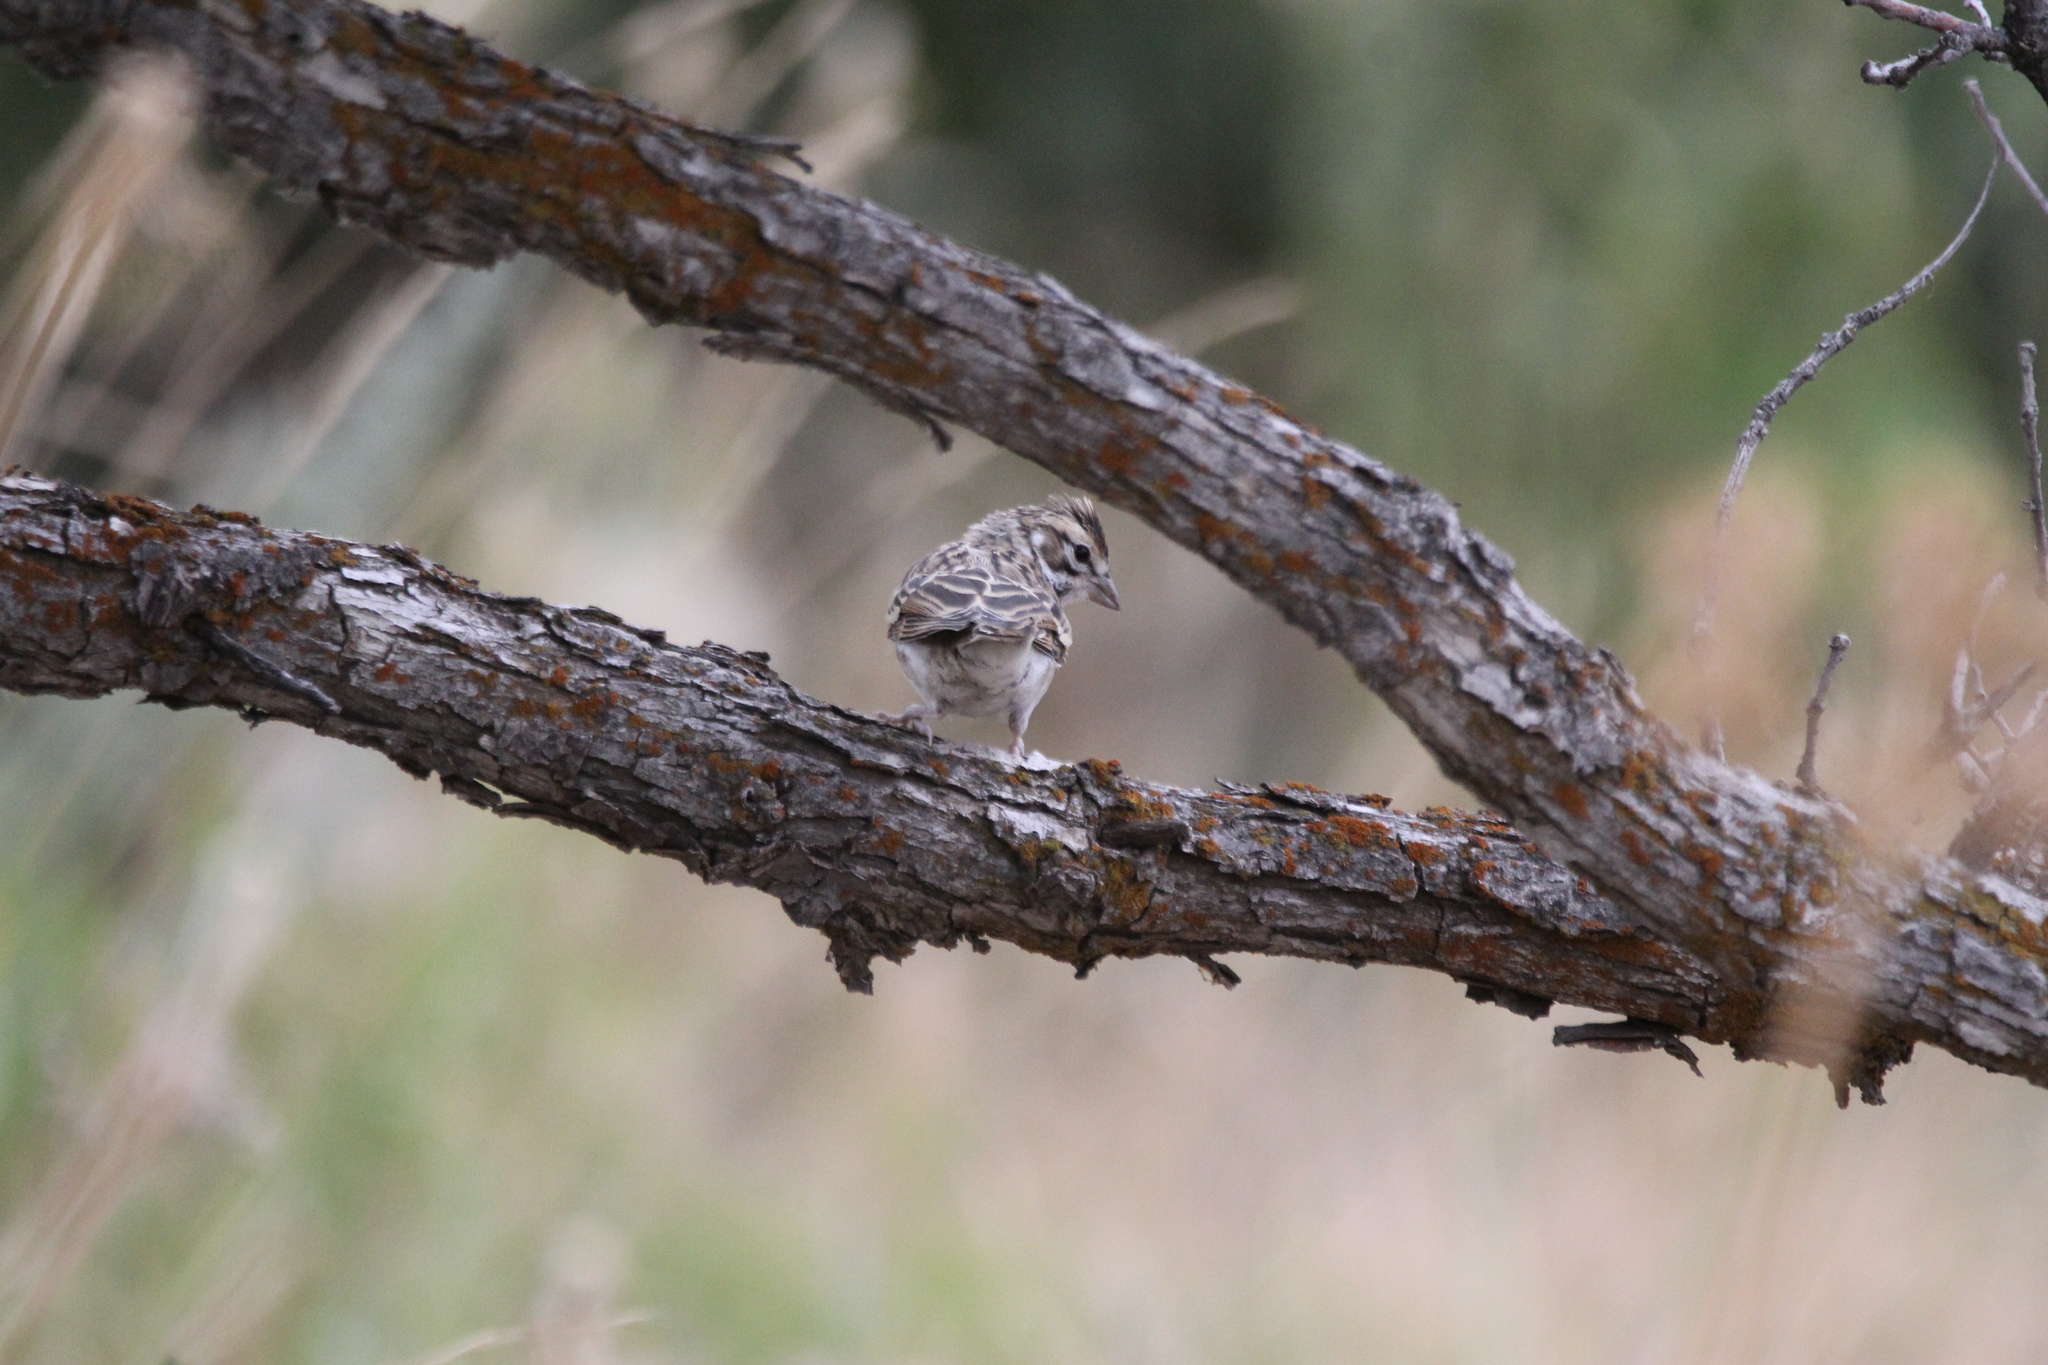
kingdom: Animalia
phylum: Chordata
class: Aves
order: Passeriformes
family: Passerellidae
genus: Chondestes
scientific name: Chondestes grammacus
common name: Lark sparrow
